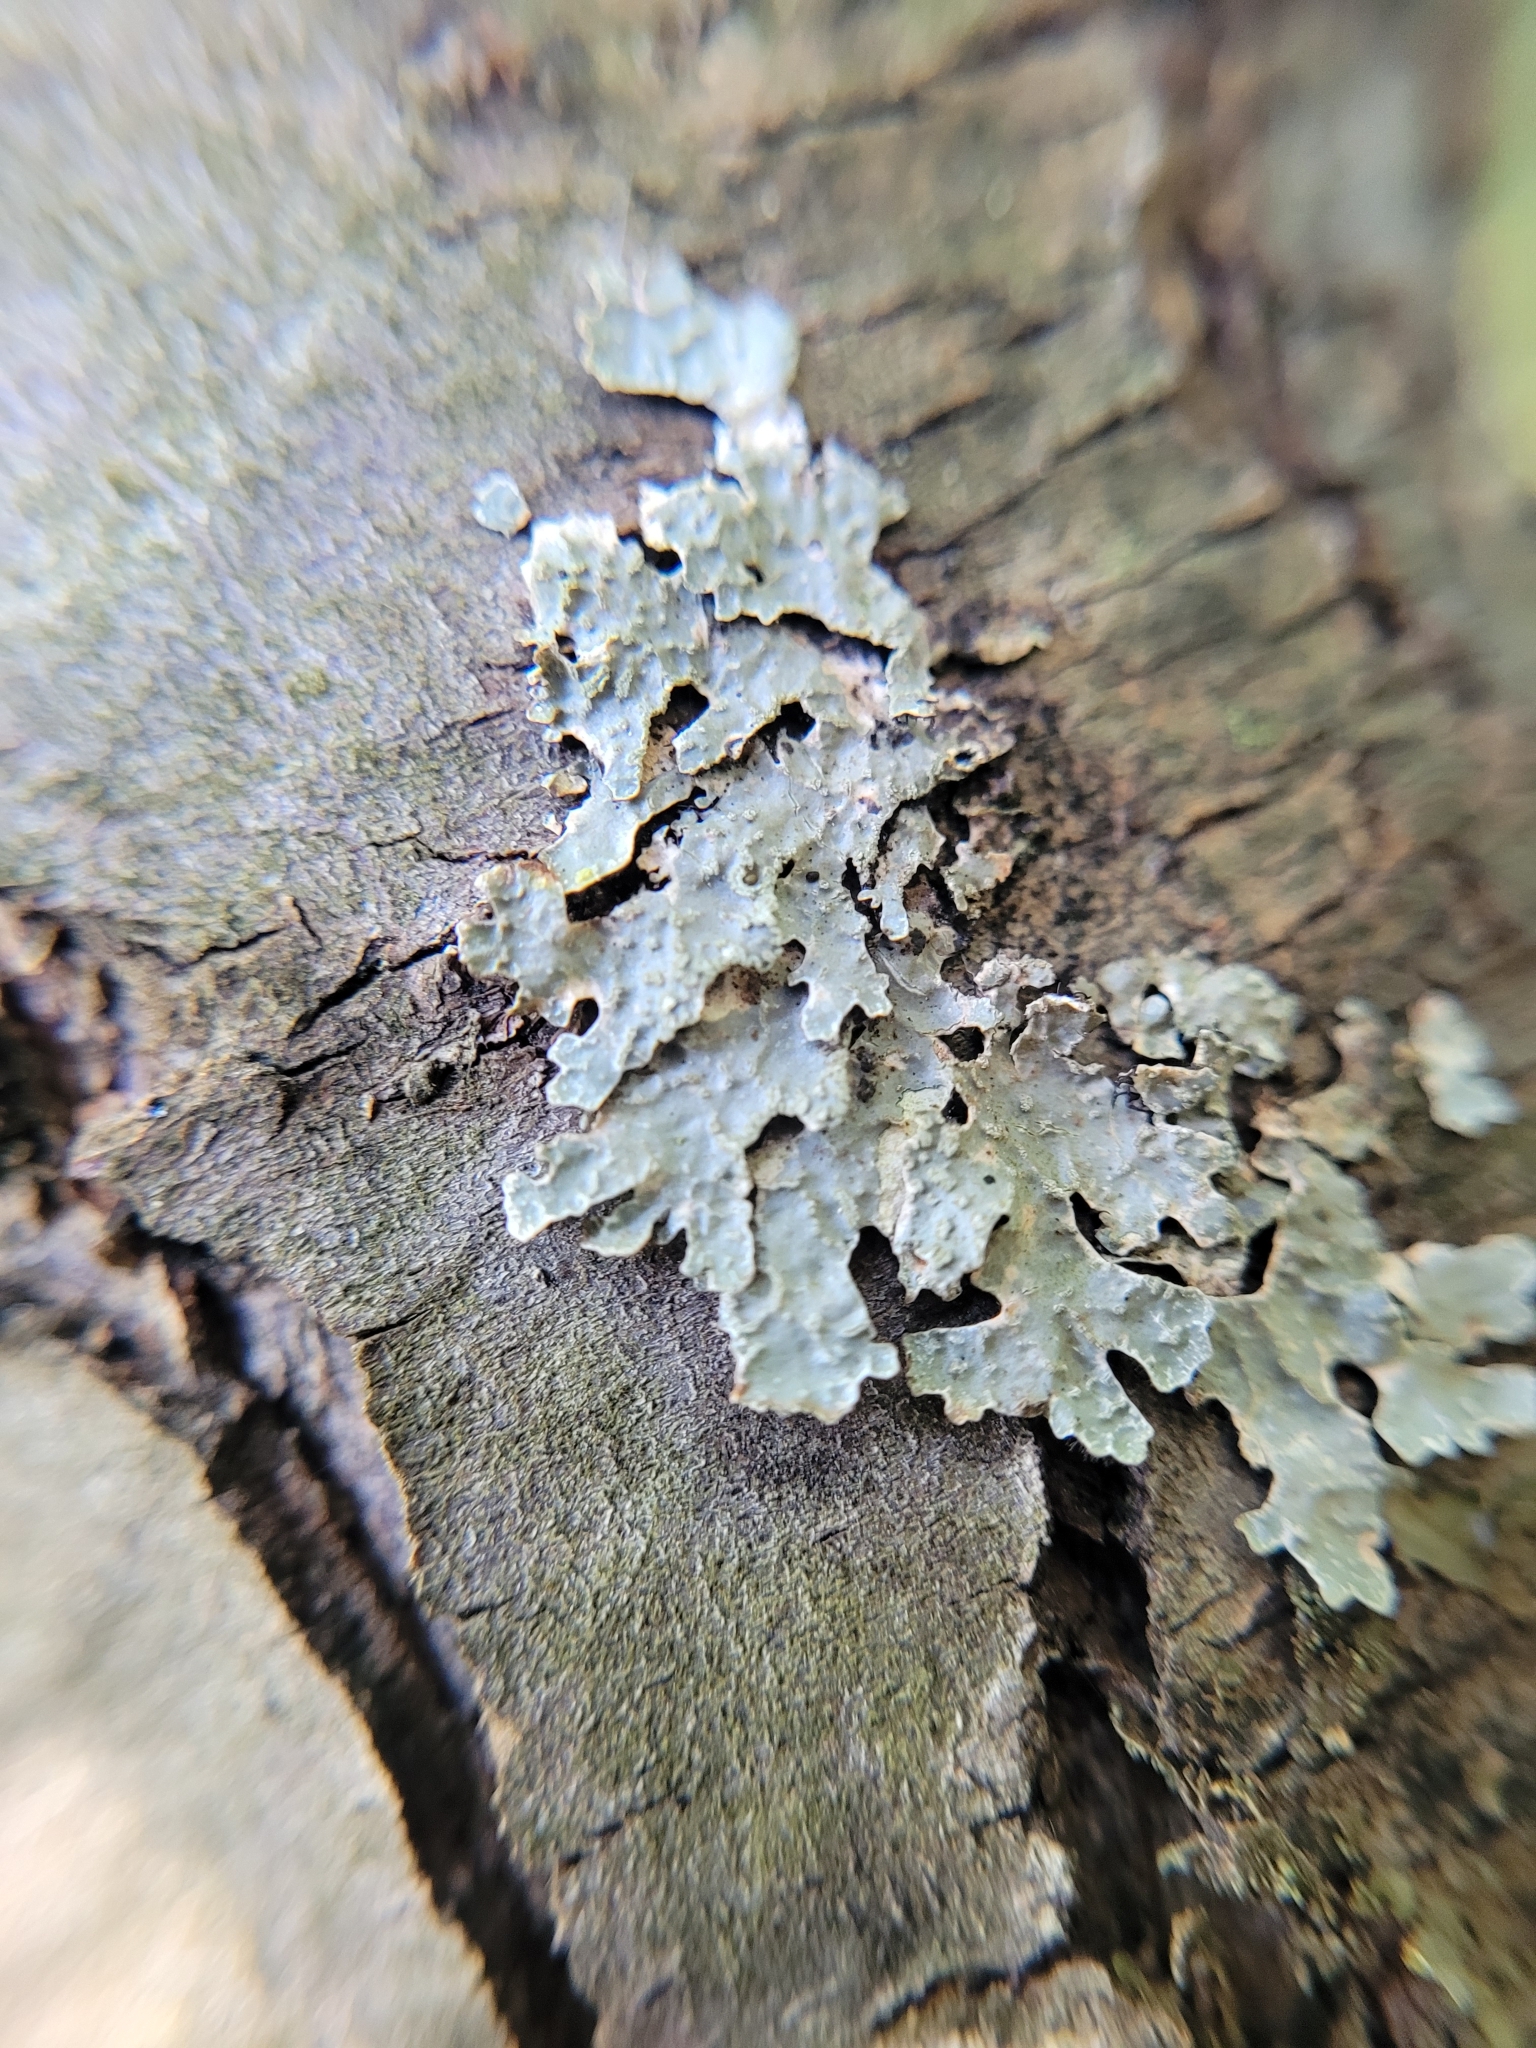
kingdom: Fungi
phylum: Ascomycota
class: Lecanoromycetes
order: Lecanorales
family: Parmeliaceae
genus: Parmelia
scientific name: Parmelia sulcata
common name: Netted shield lichen
